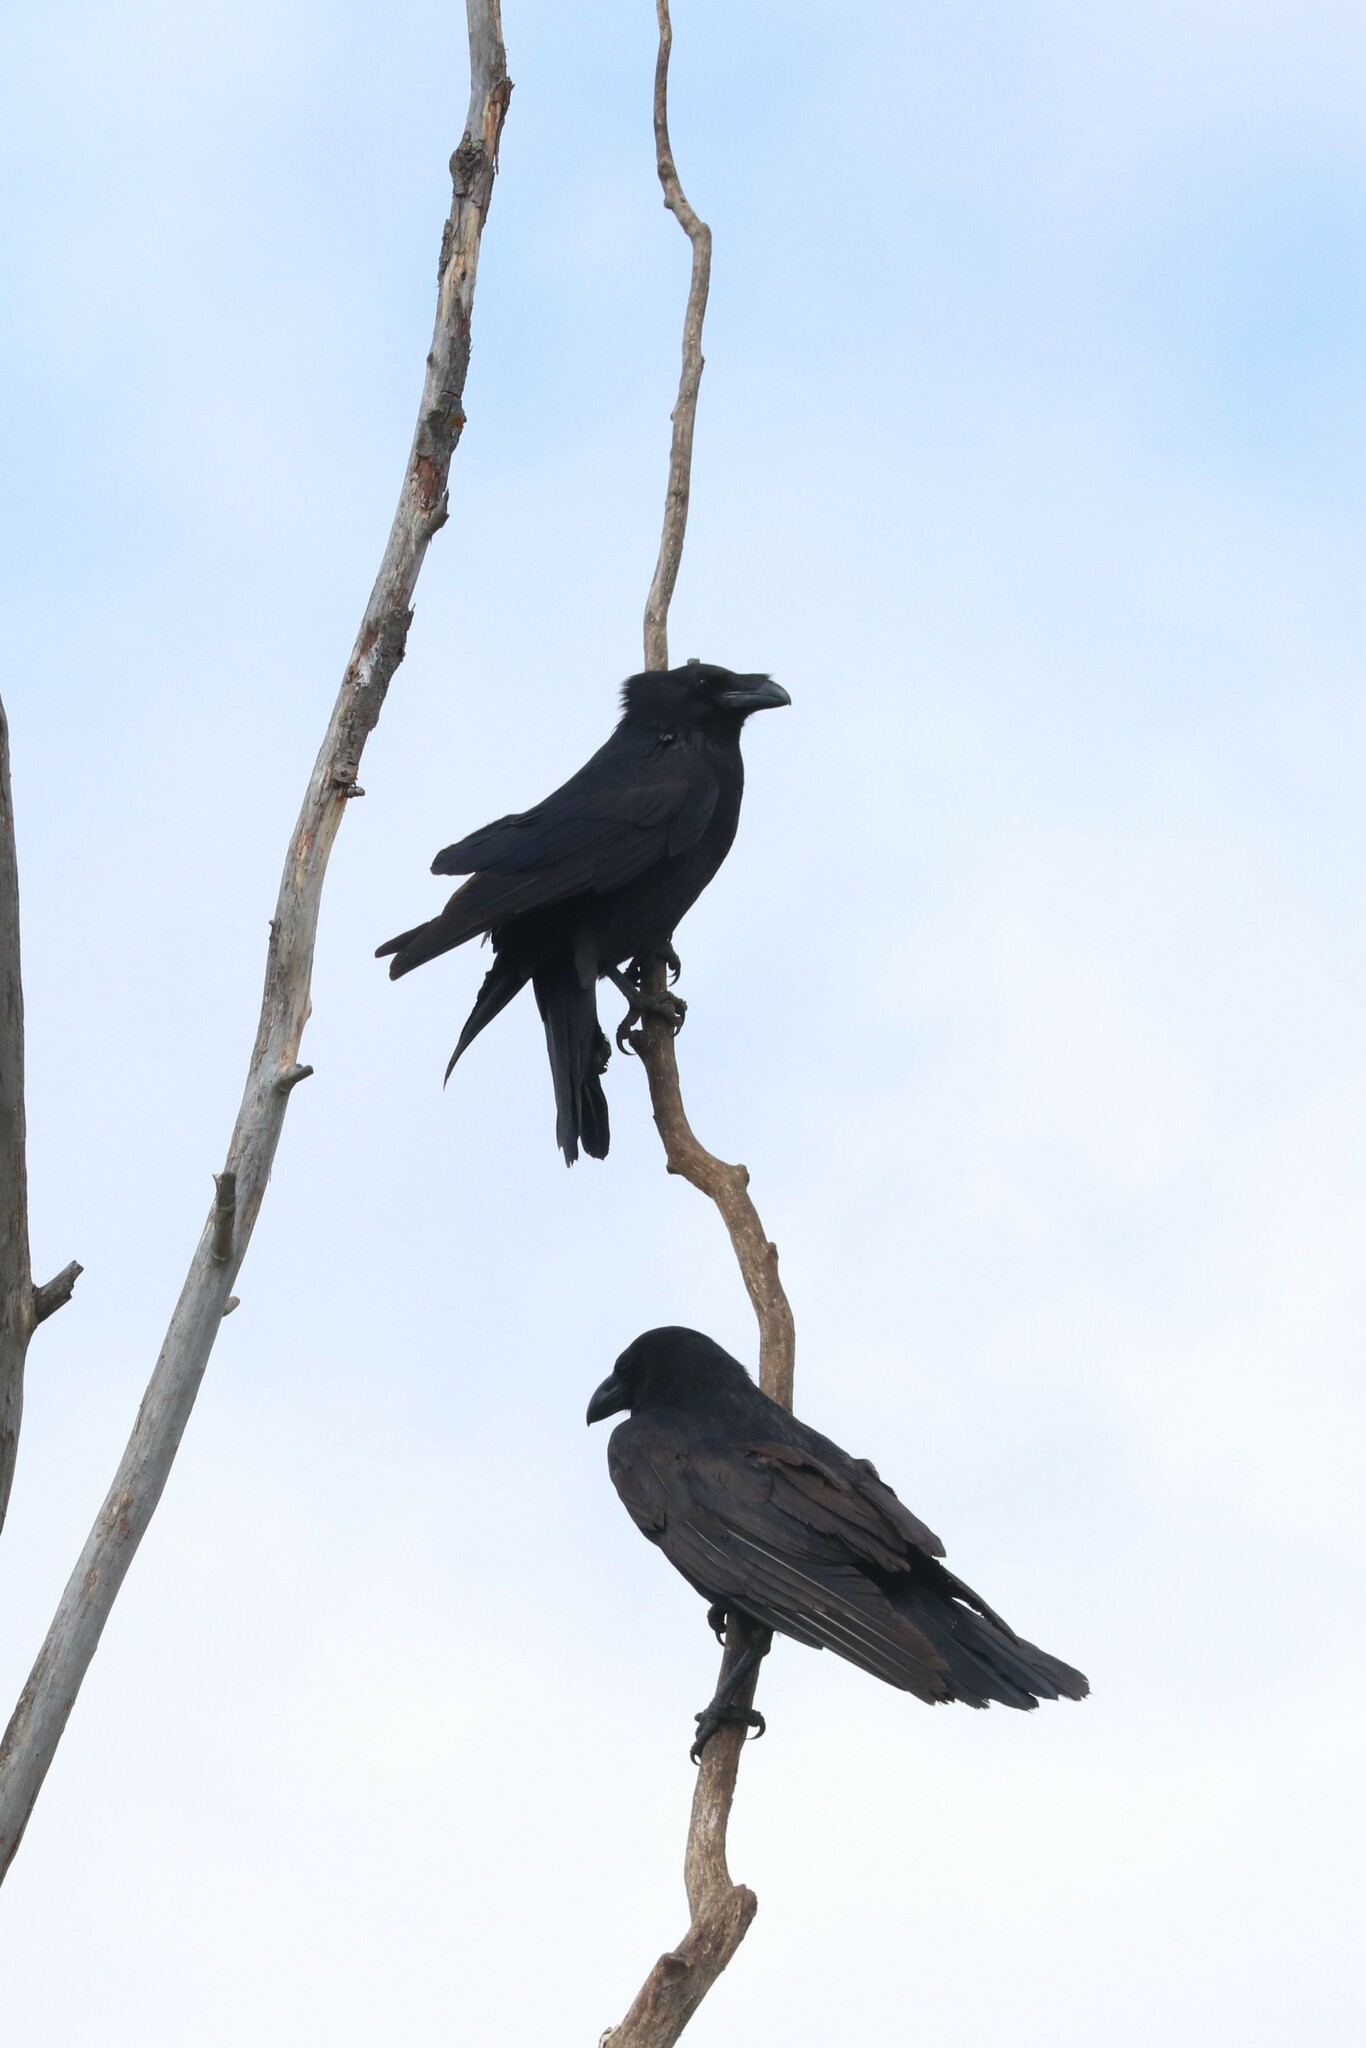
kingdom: Animalia
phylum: Chordata
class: Aves
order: Passeriformes
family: Corvidae
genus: Corvus
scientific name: Corvus corax
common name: Common raven
